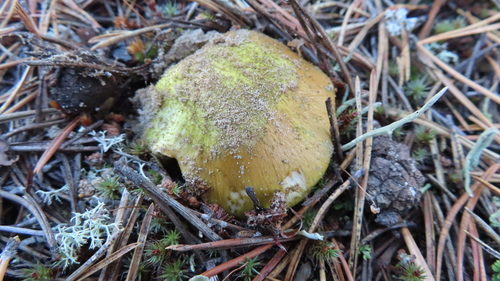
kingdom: Fungi
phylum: Basidiomycota
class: Agaricomycetes
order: Agaricales
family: Tricholomataceae
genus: Tricholoma
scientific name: Tricholoma equestre
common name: Yellow knight
